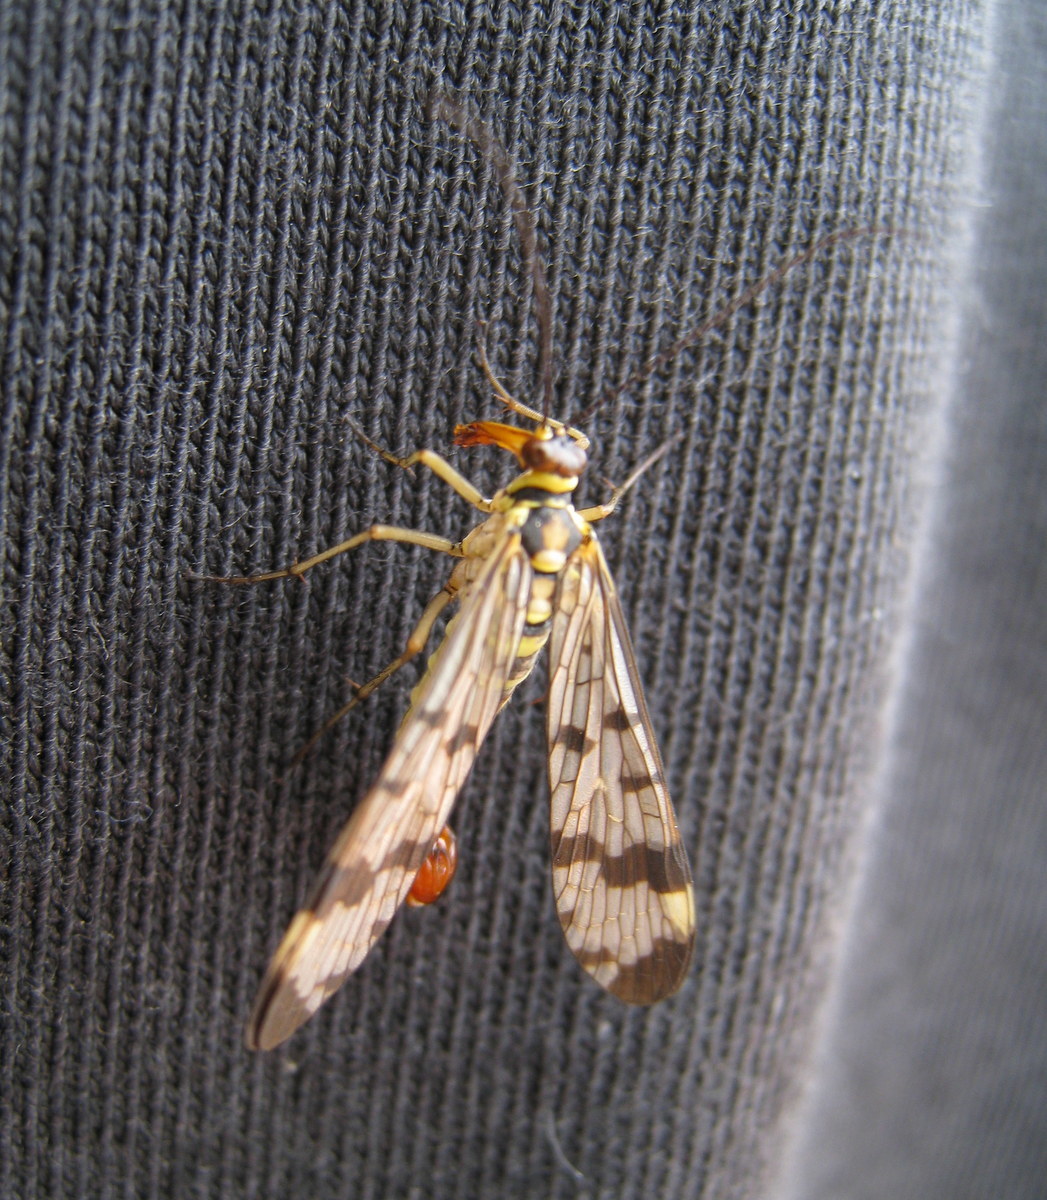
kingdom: Animalia
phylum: Arthropoda
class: Insecta
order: Mecoptera
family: Panorpidae
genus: Panorpa
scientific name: Panorpa communis
